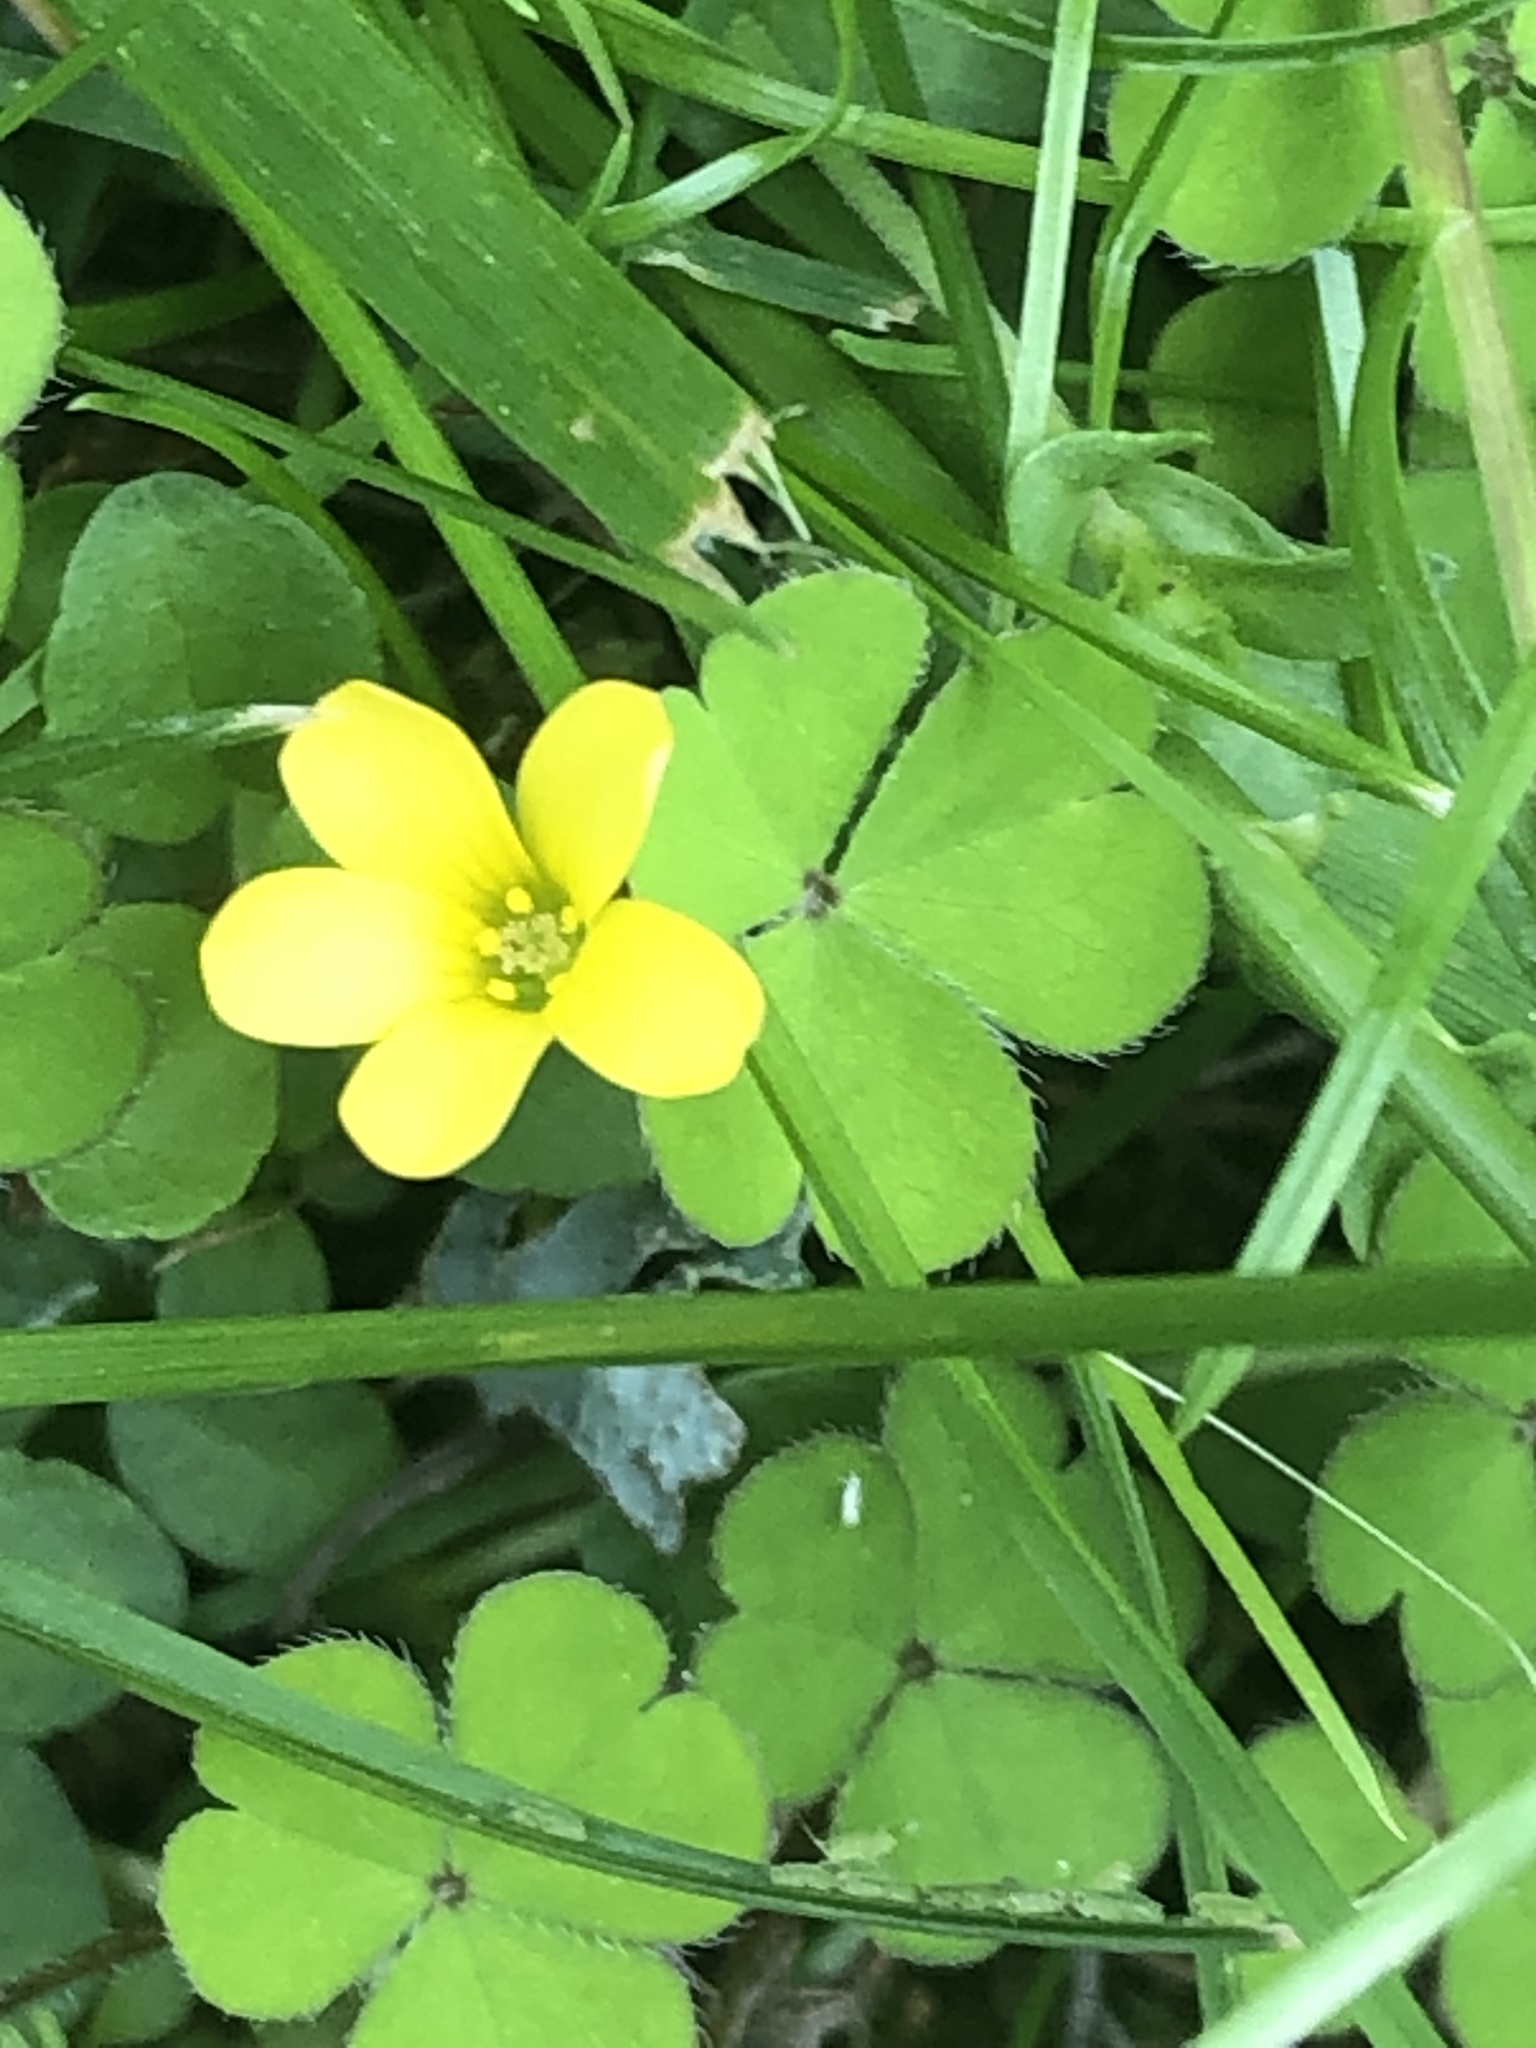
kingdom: Plantae
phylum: Tracheophyta
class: Magnoliopsida
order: Oxalidales
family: Oxalidaceae
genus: Oxalis
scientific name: Oxalis exilis
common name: Least yellow-sorrel
